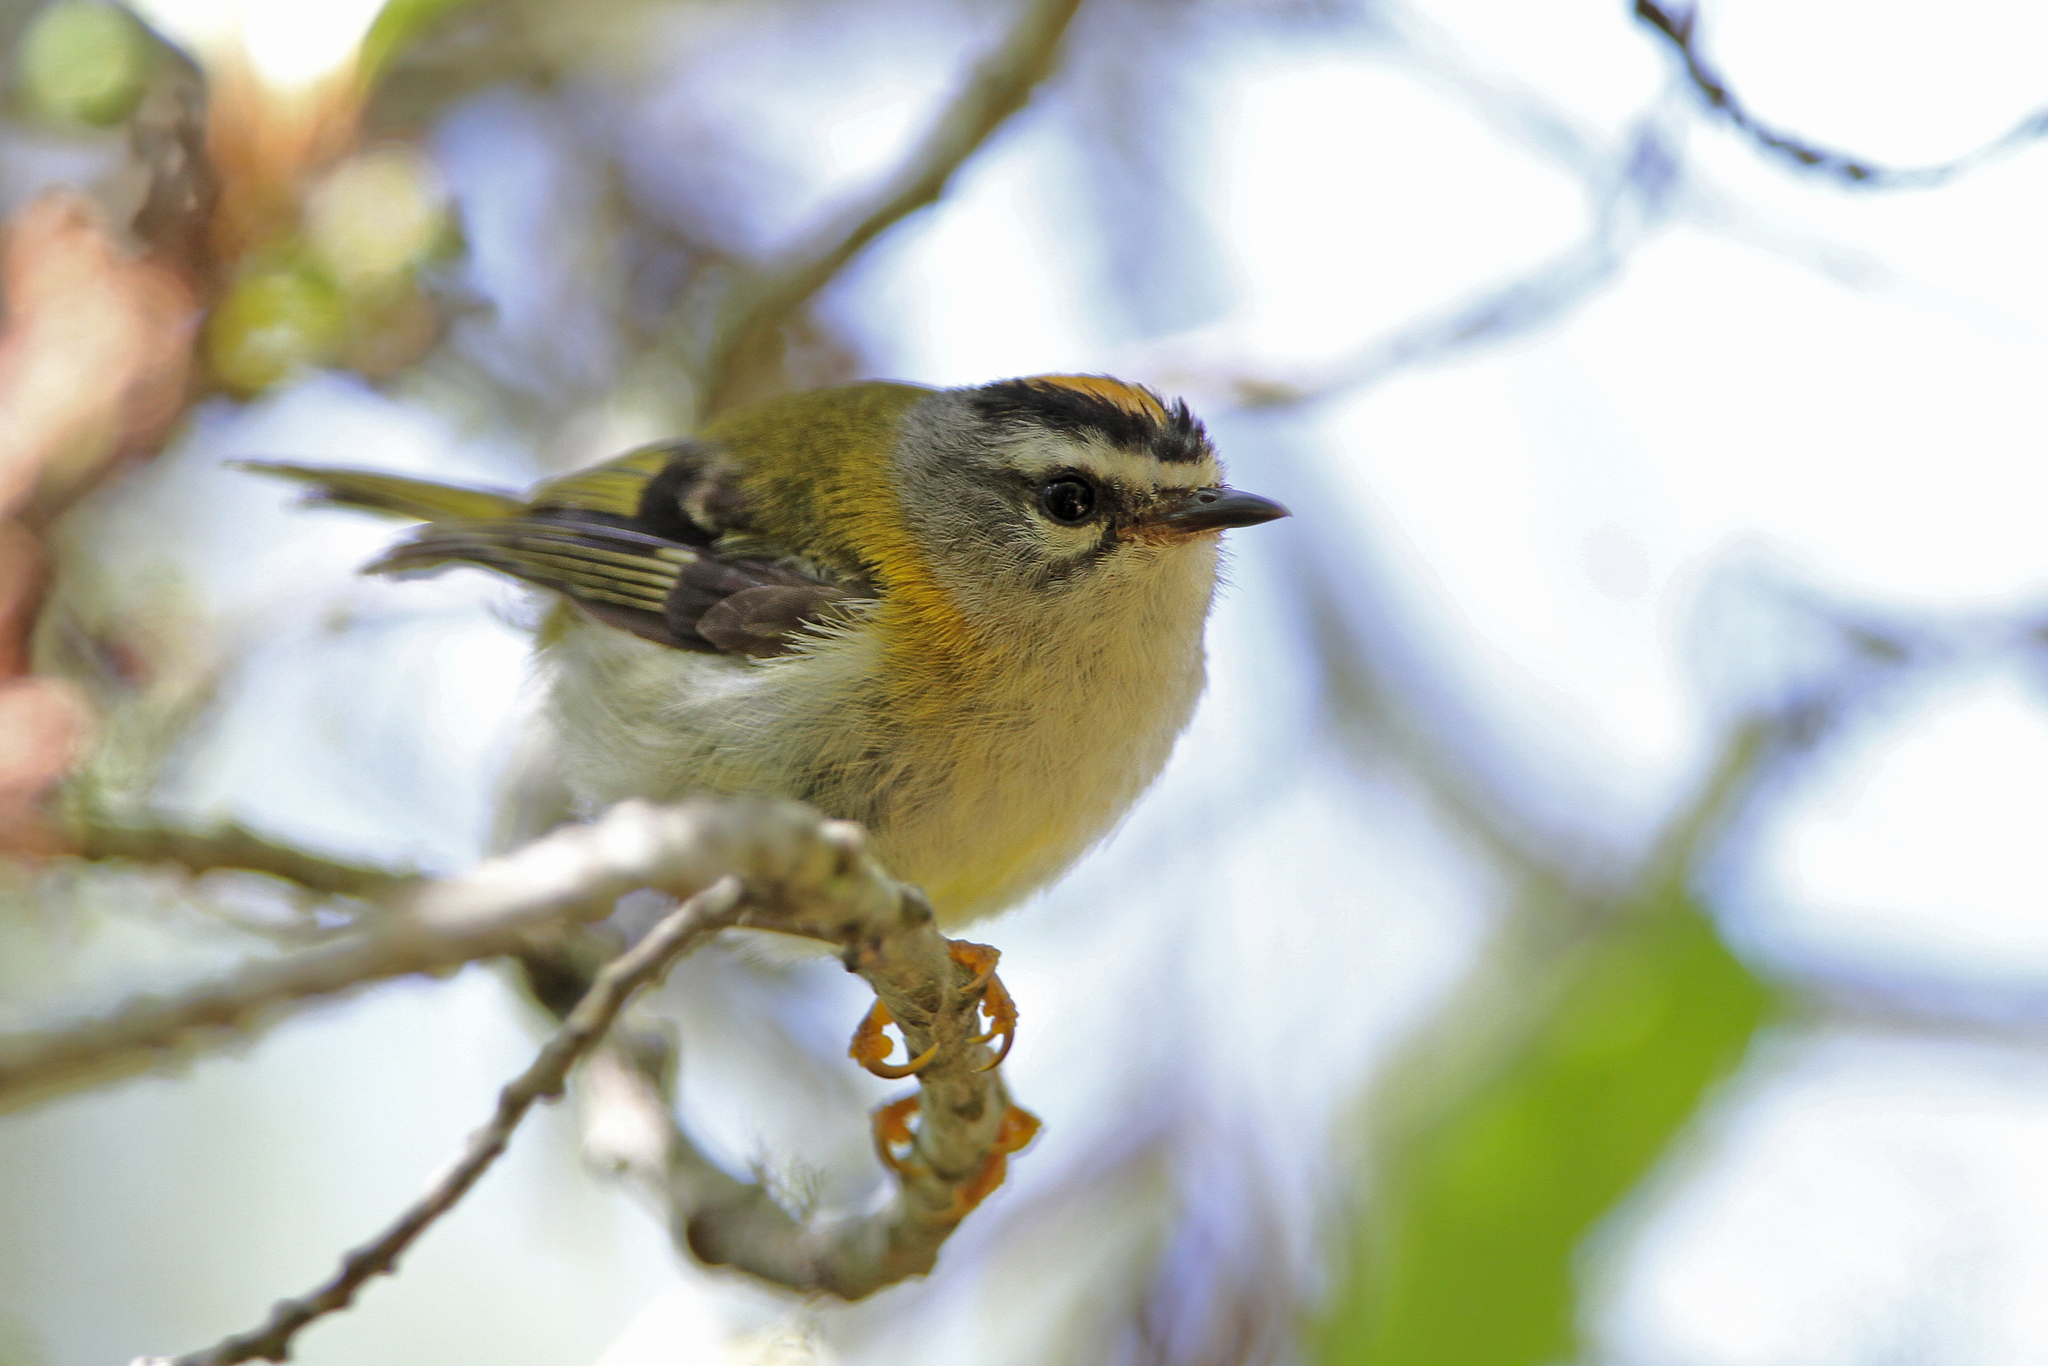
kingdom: Animalia
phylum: Chordata
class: Aves
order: Passeriformes
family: Regulidae
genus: Regulus
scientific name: Regulus madeirensis
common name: Madeira firecrest
